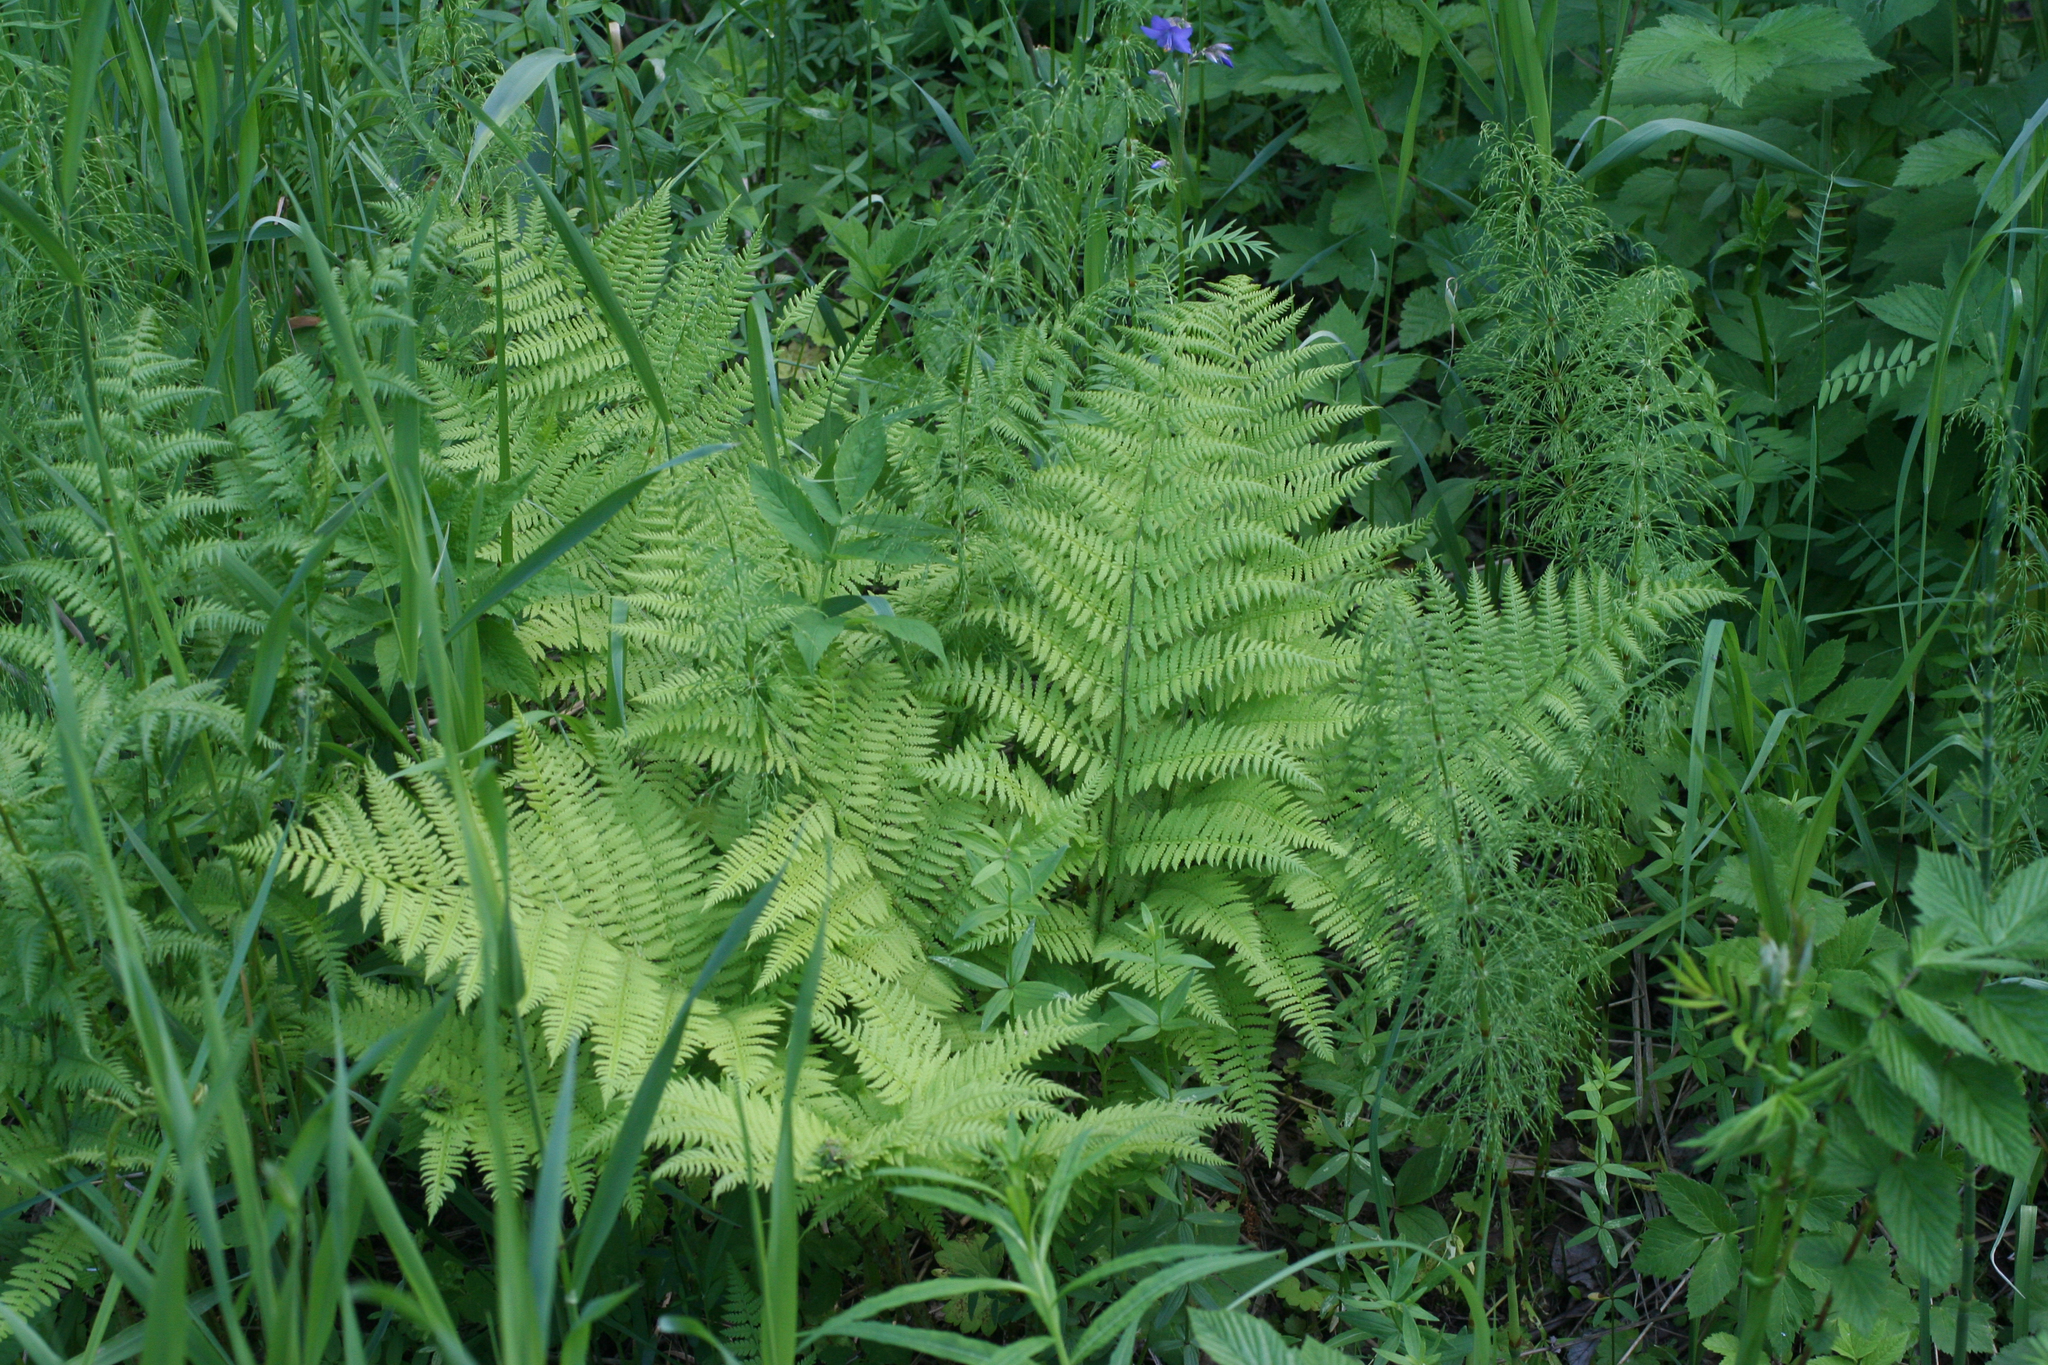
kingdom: Plantae
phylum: Tracheophyta
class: Polypodiopsida
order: Polypodiales
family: Athyriaceae
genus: Athyrium
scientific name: Athyrium filix-femina
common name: Lady fern
